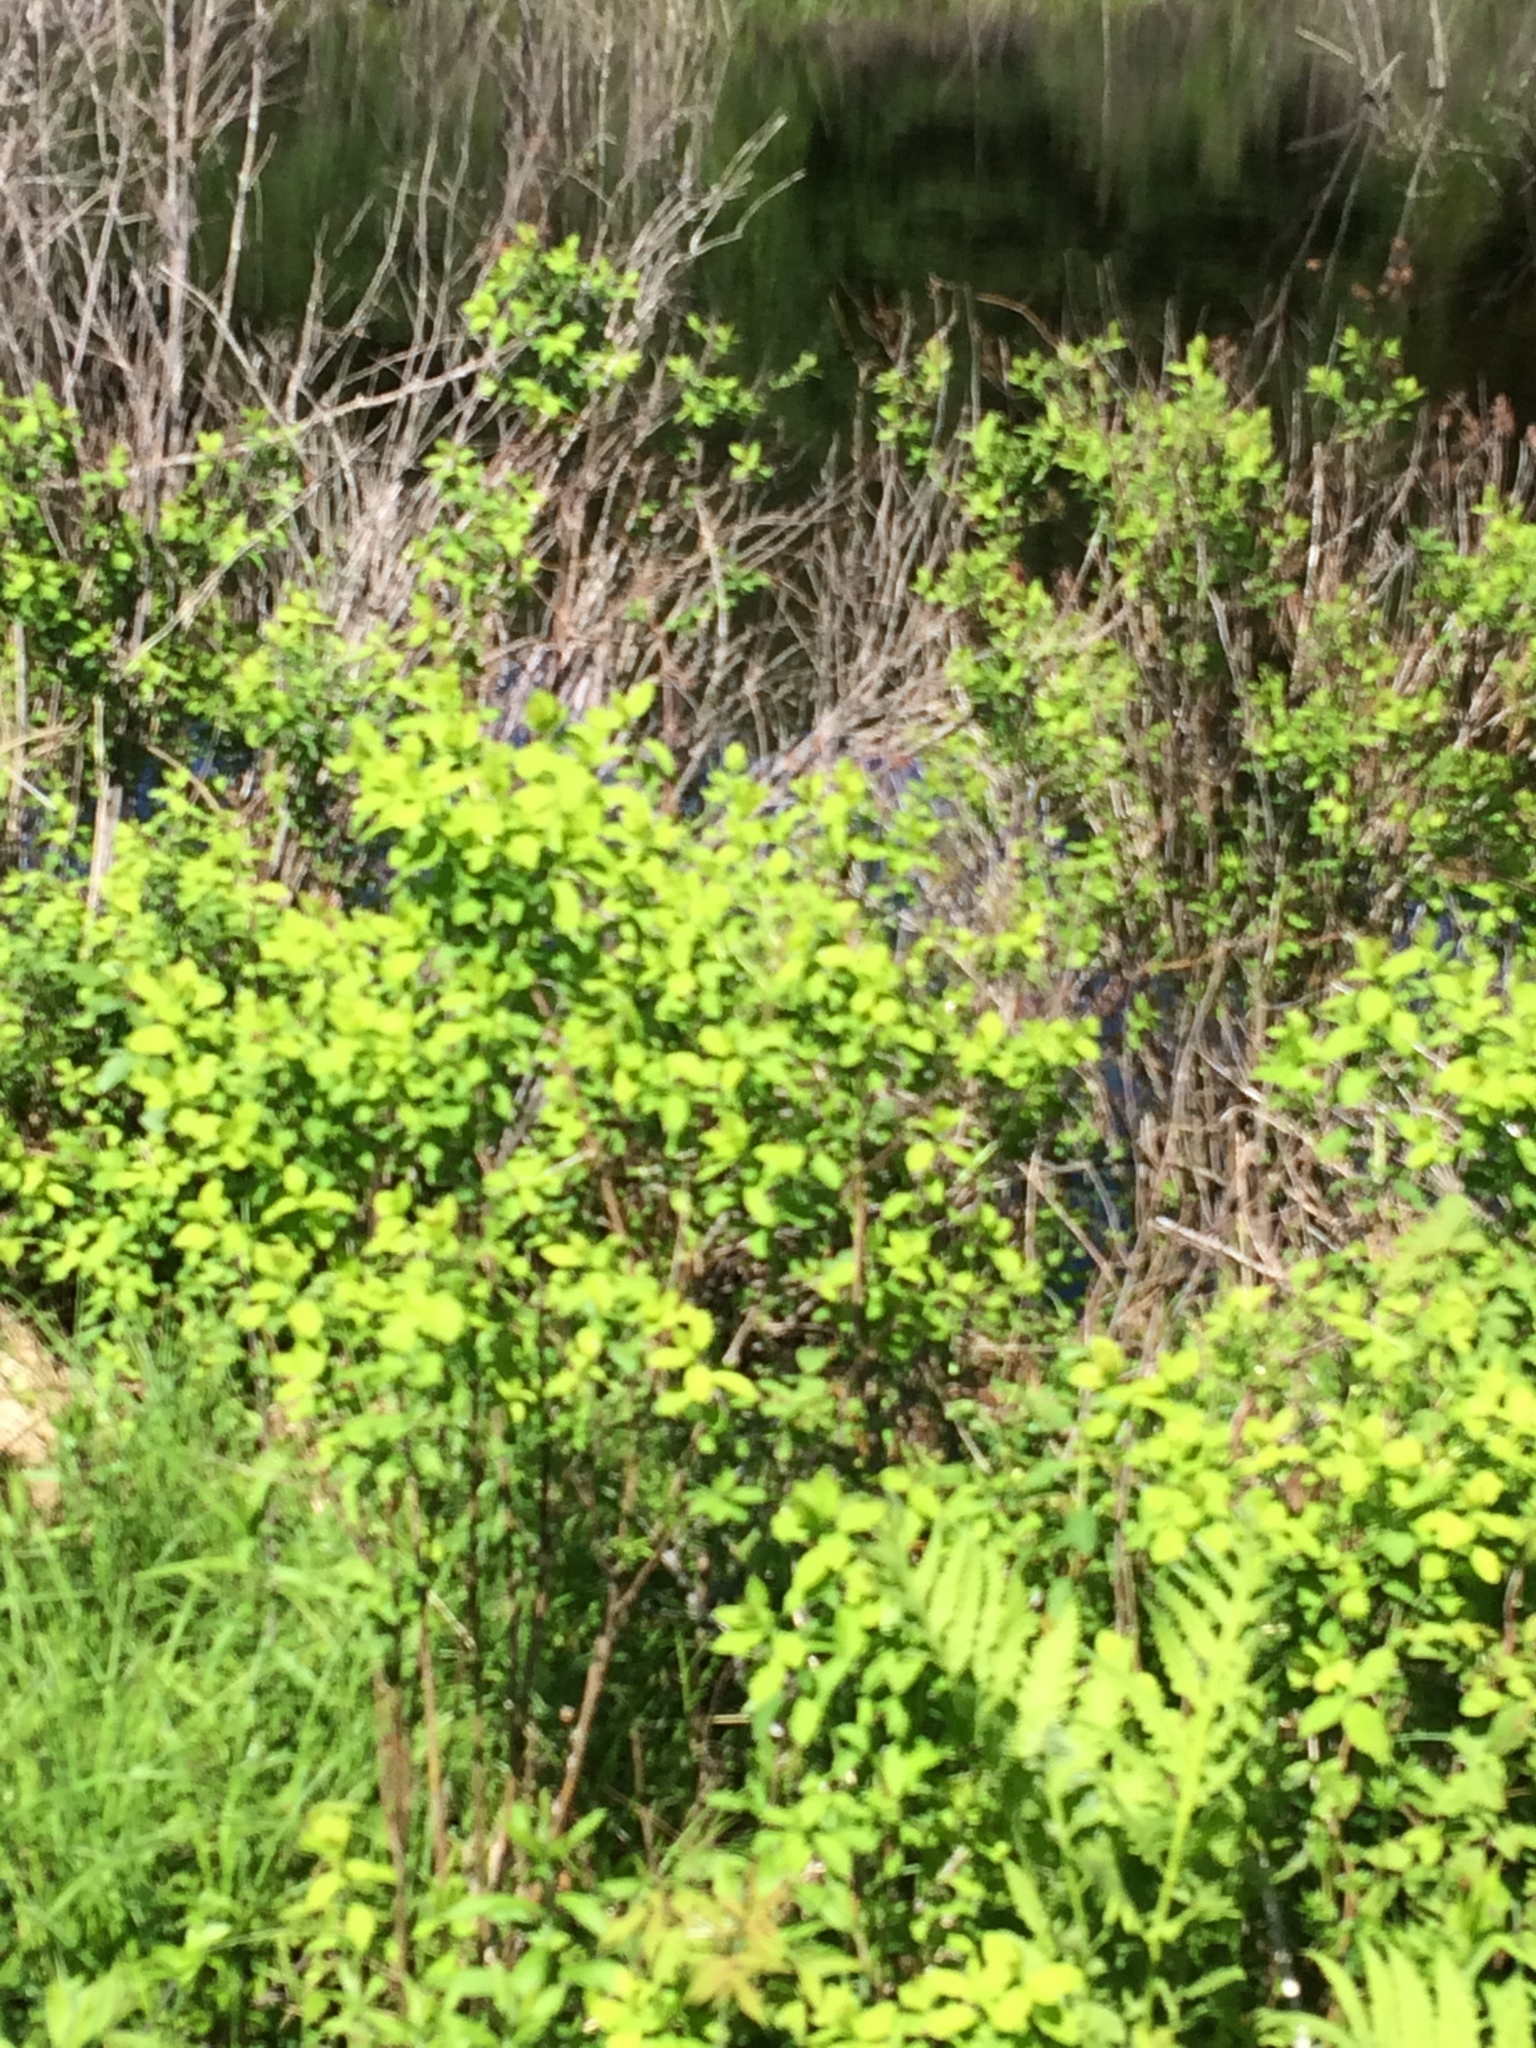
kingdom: Plantae
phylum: Tracheophyta
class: Magnoliopsida
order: Rosales
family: Rosaceae
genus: Spiraea
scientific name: Spiraea alba
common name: Pale bridewort
